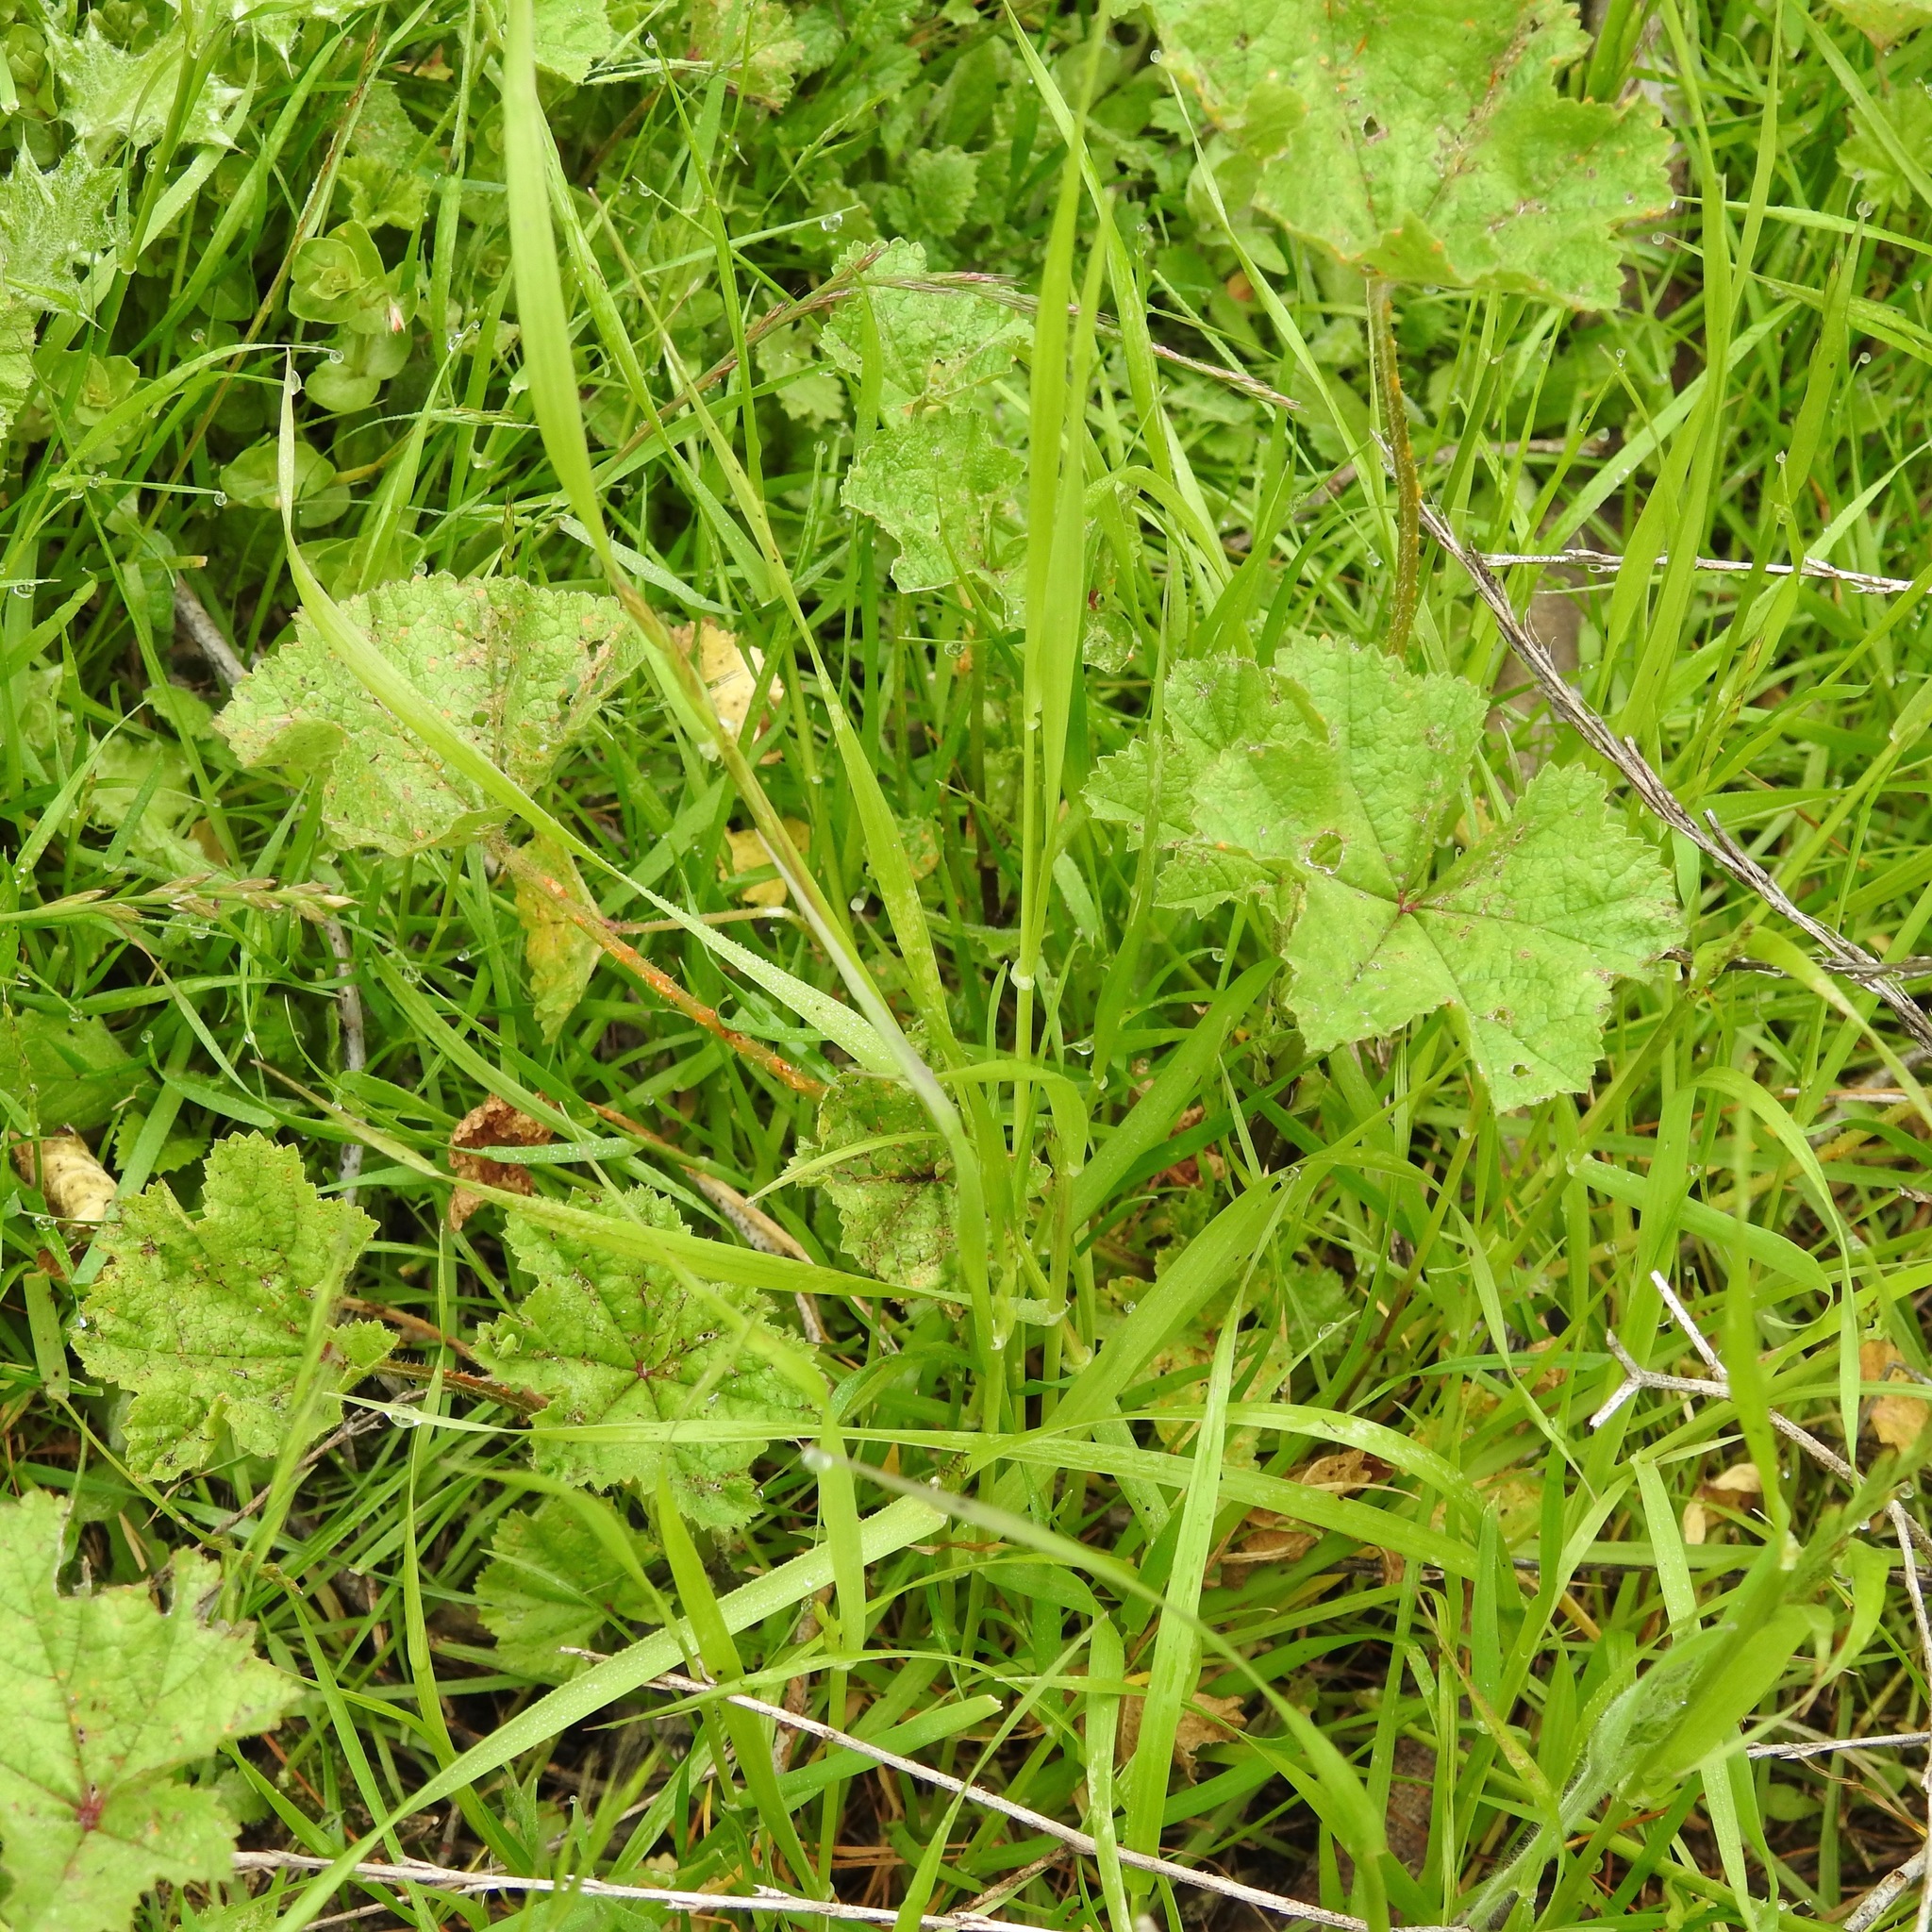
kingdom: Plantae
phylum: Tracheophyta
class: Magnoliopsida
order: Malvales
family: Malvaceae
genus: Malva
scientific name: Malva
